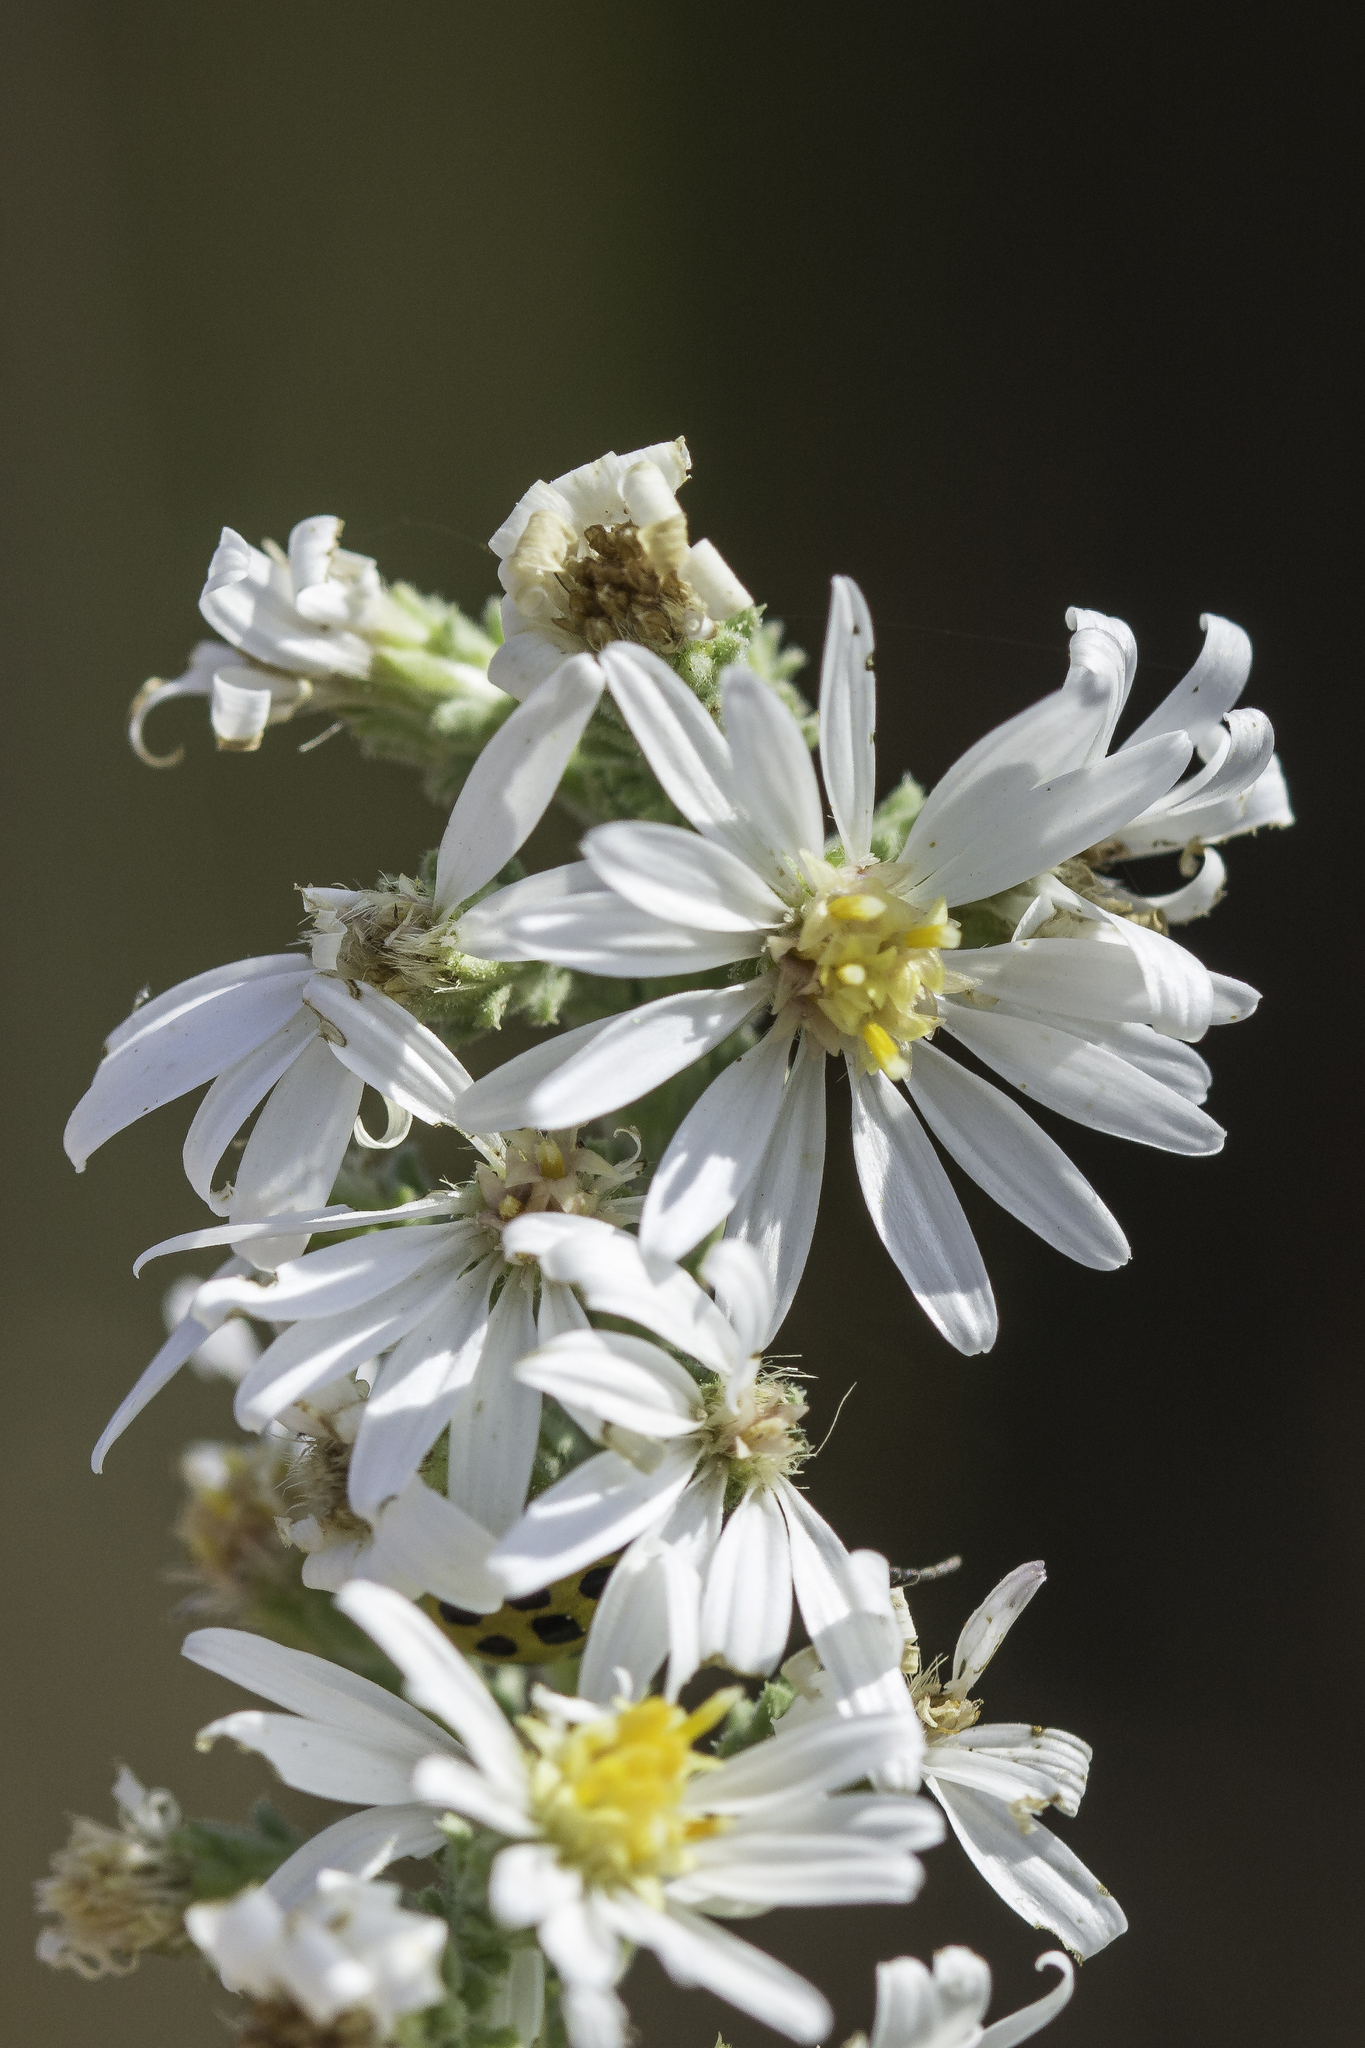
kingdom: Plantae
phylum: Tracheophyta
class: Magnoliopsida
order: Asterales
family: Asteraceae
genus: Symphyotrichum
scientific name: Symphyotrichum ericoides
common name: Heath aster
